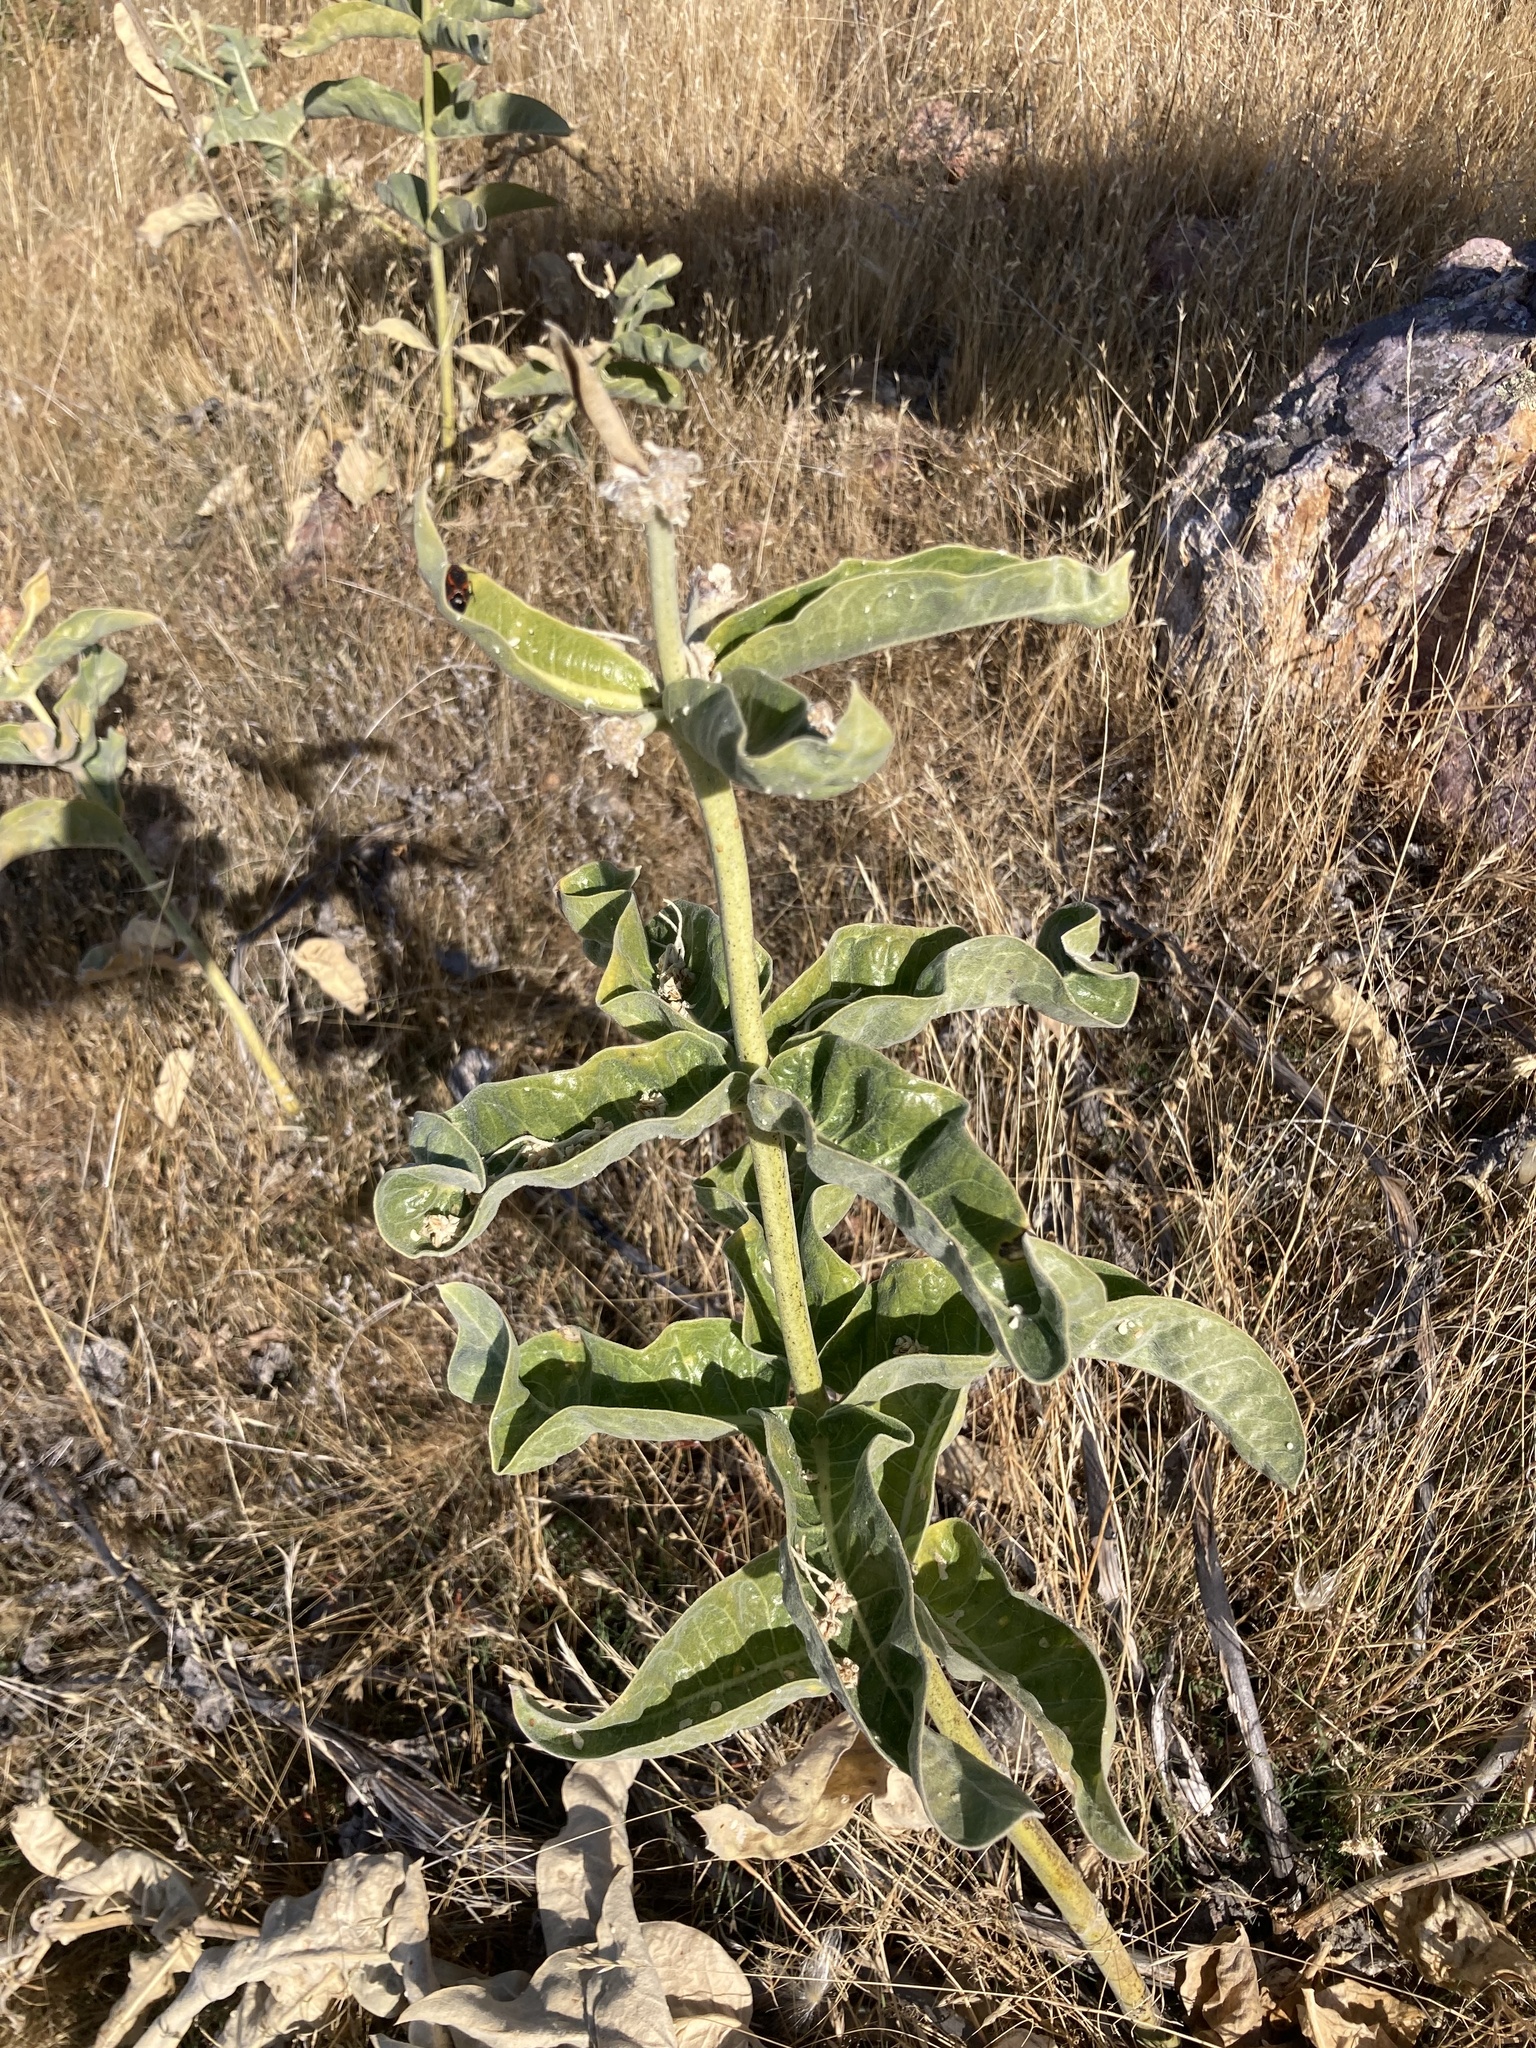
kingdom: Plantae
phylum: Tracheophyta
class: Magnoliopsida
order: Gentianales
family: Apocynaceae
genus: Asclepias
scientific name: Asclepias eriocarpa
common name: Indian milkweed
